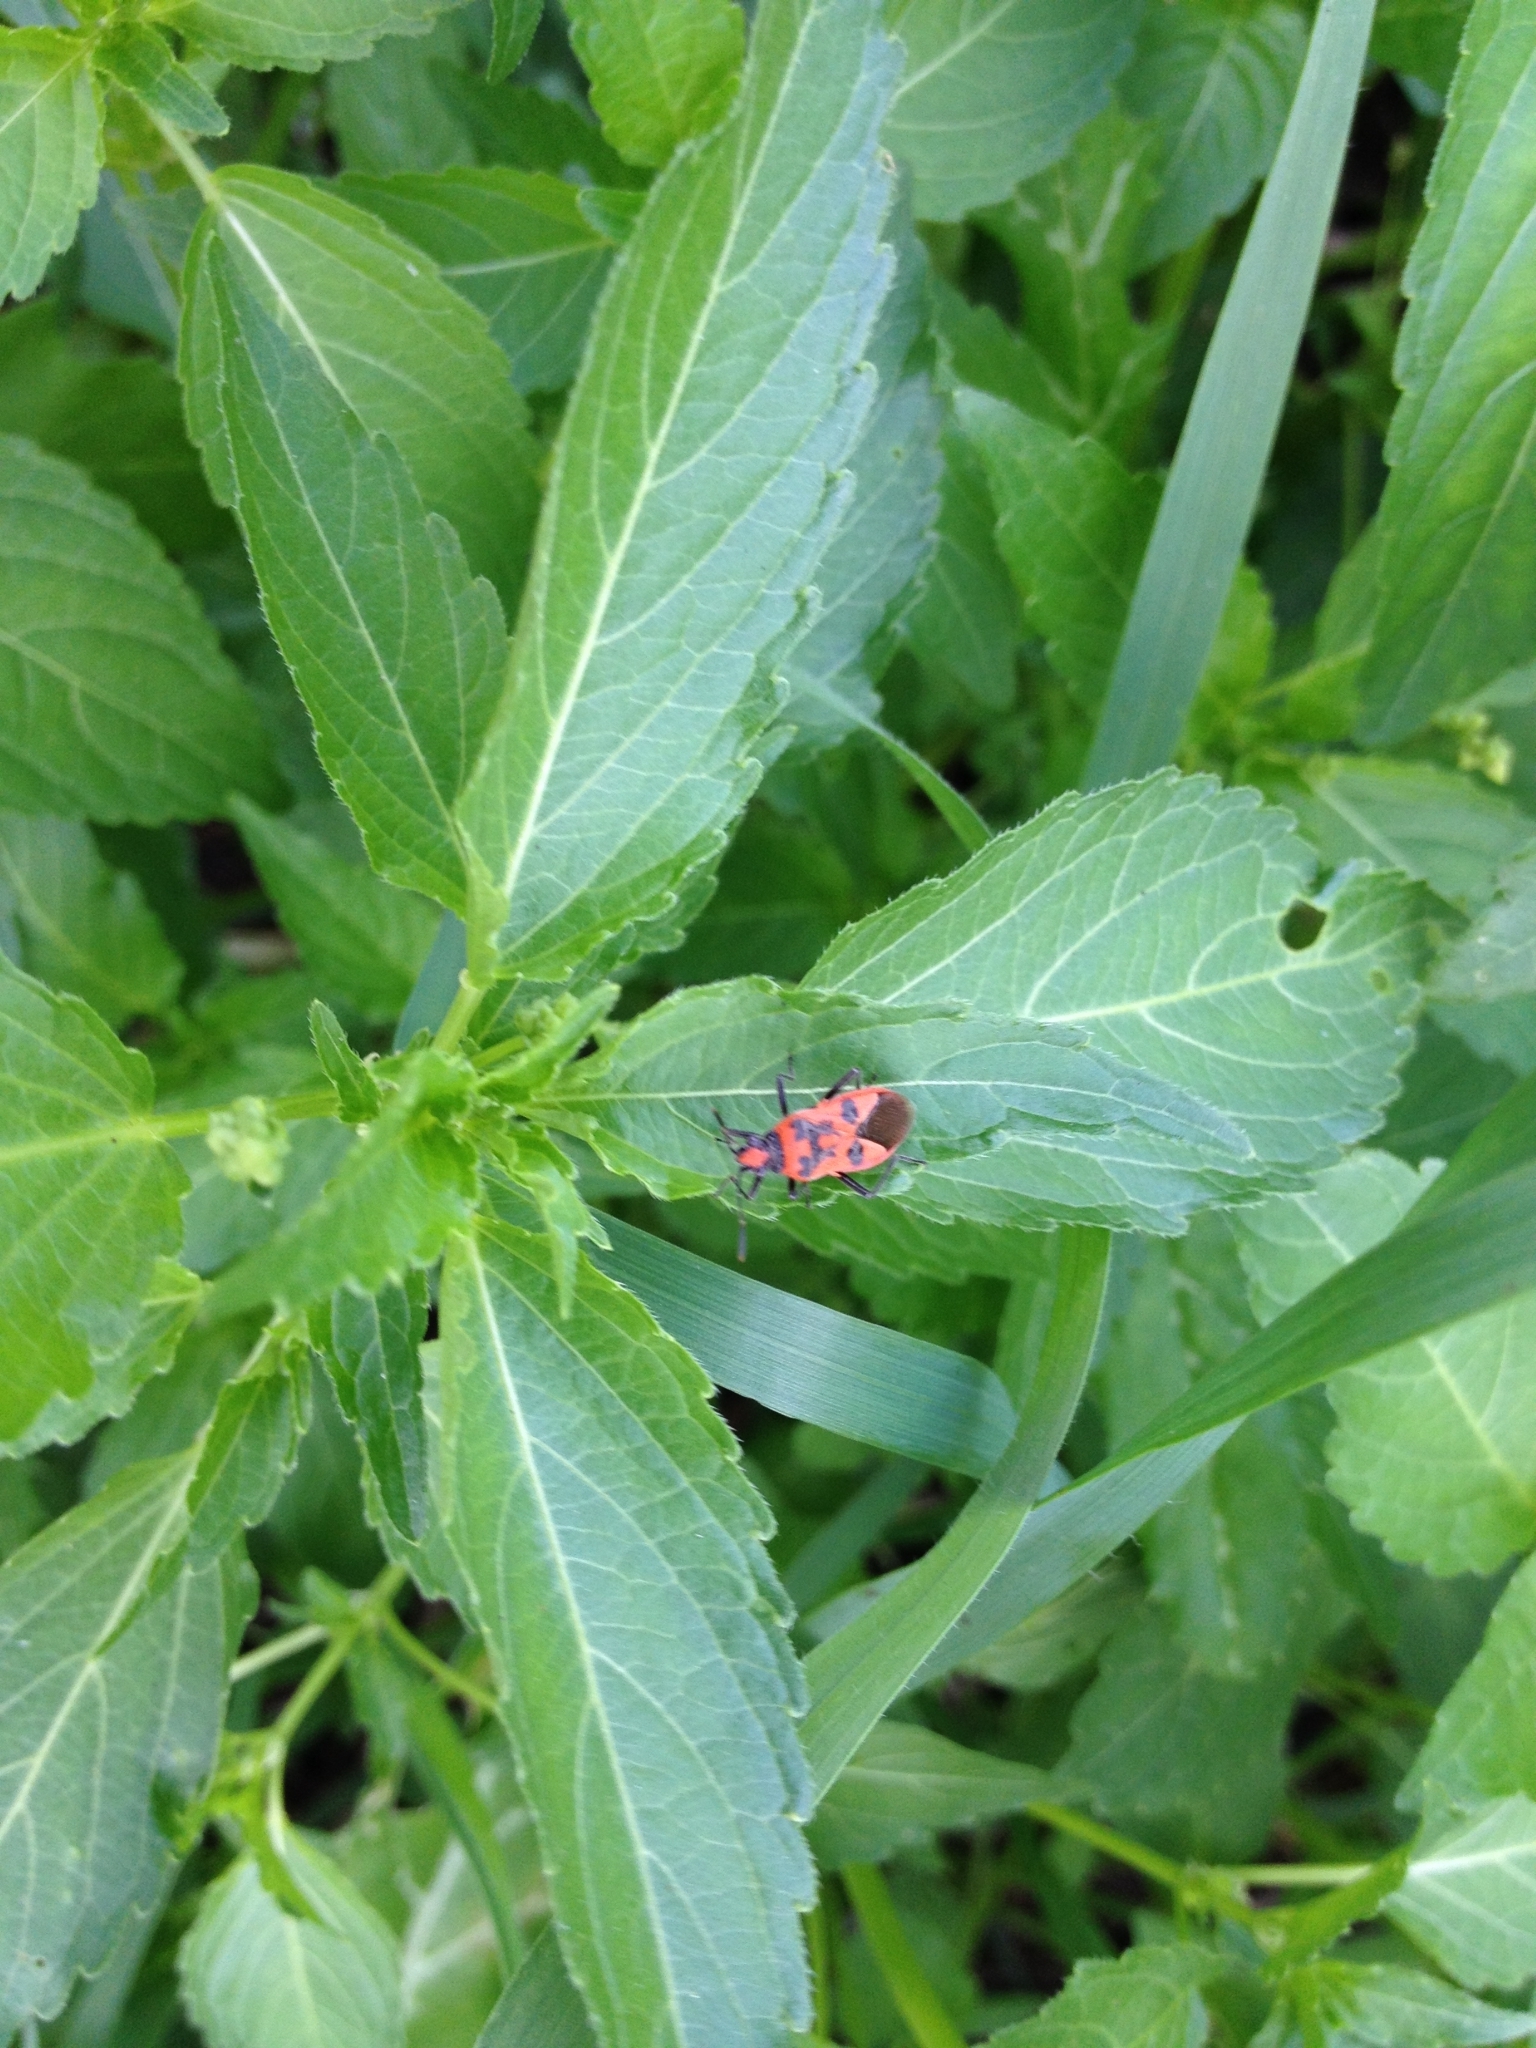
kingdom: Animalia
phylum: Arthropoda
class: Insecta
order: Hemiptera
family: Rhopalidae
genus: Corizus
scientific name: Corizus hyoscyami
